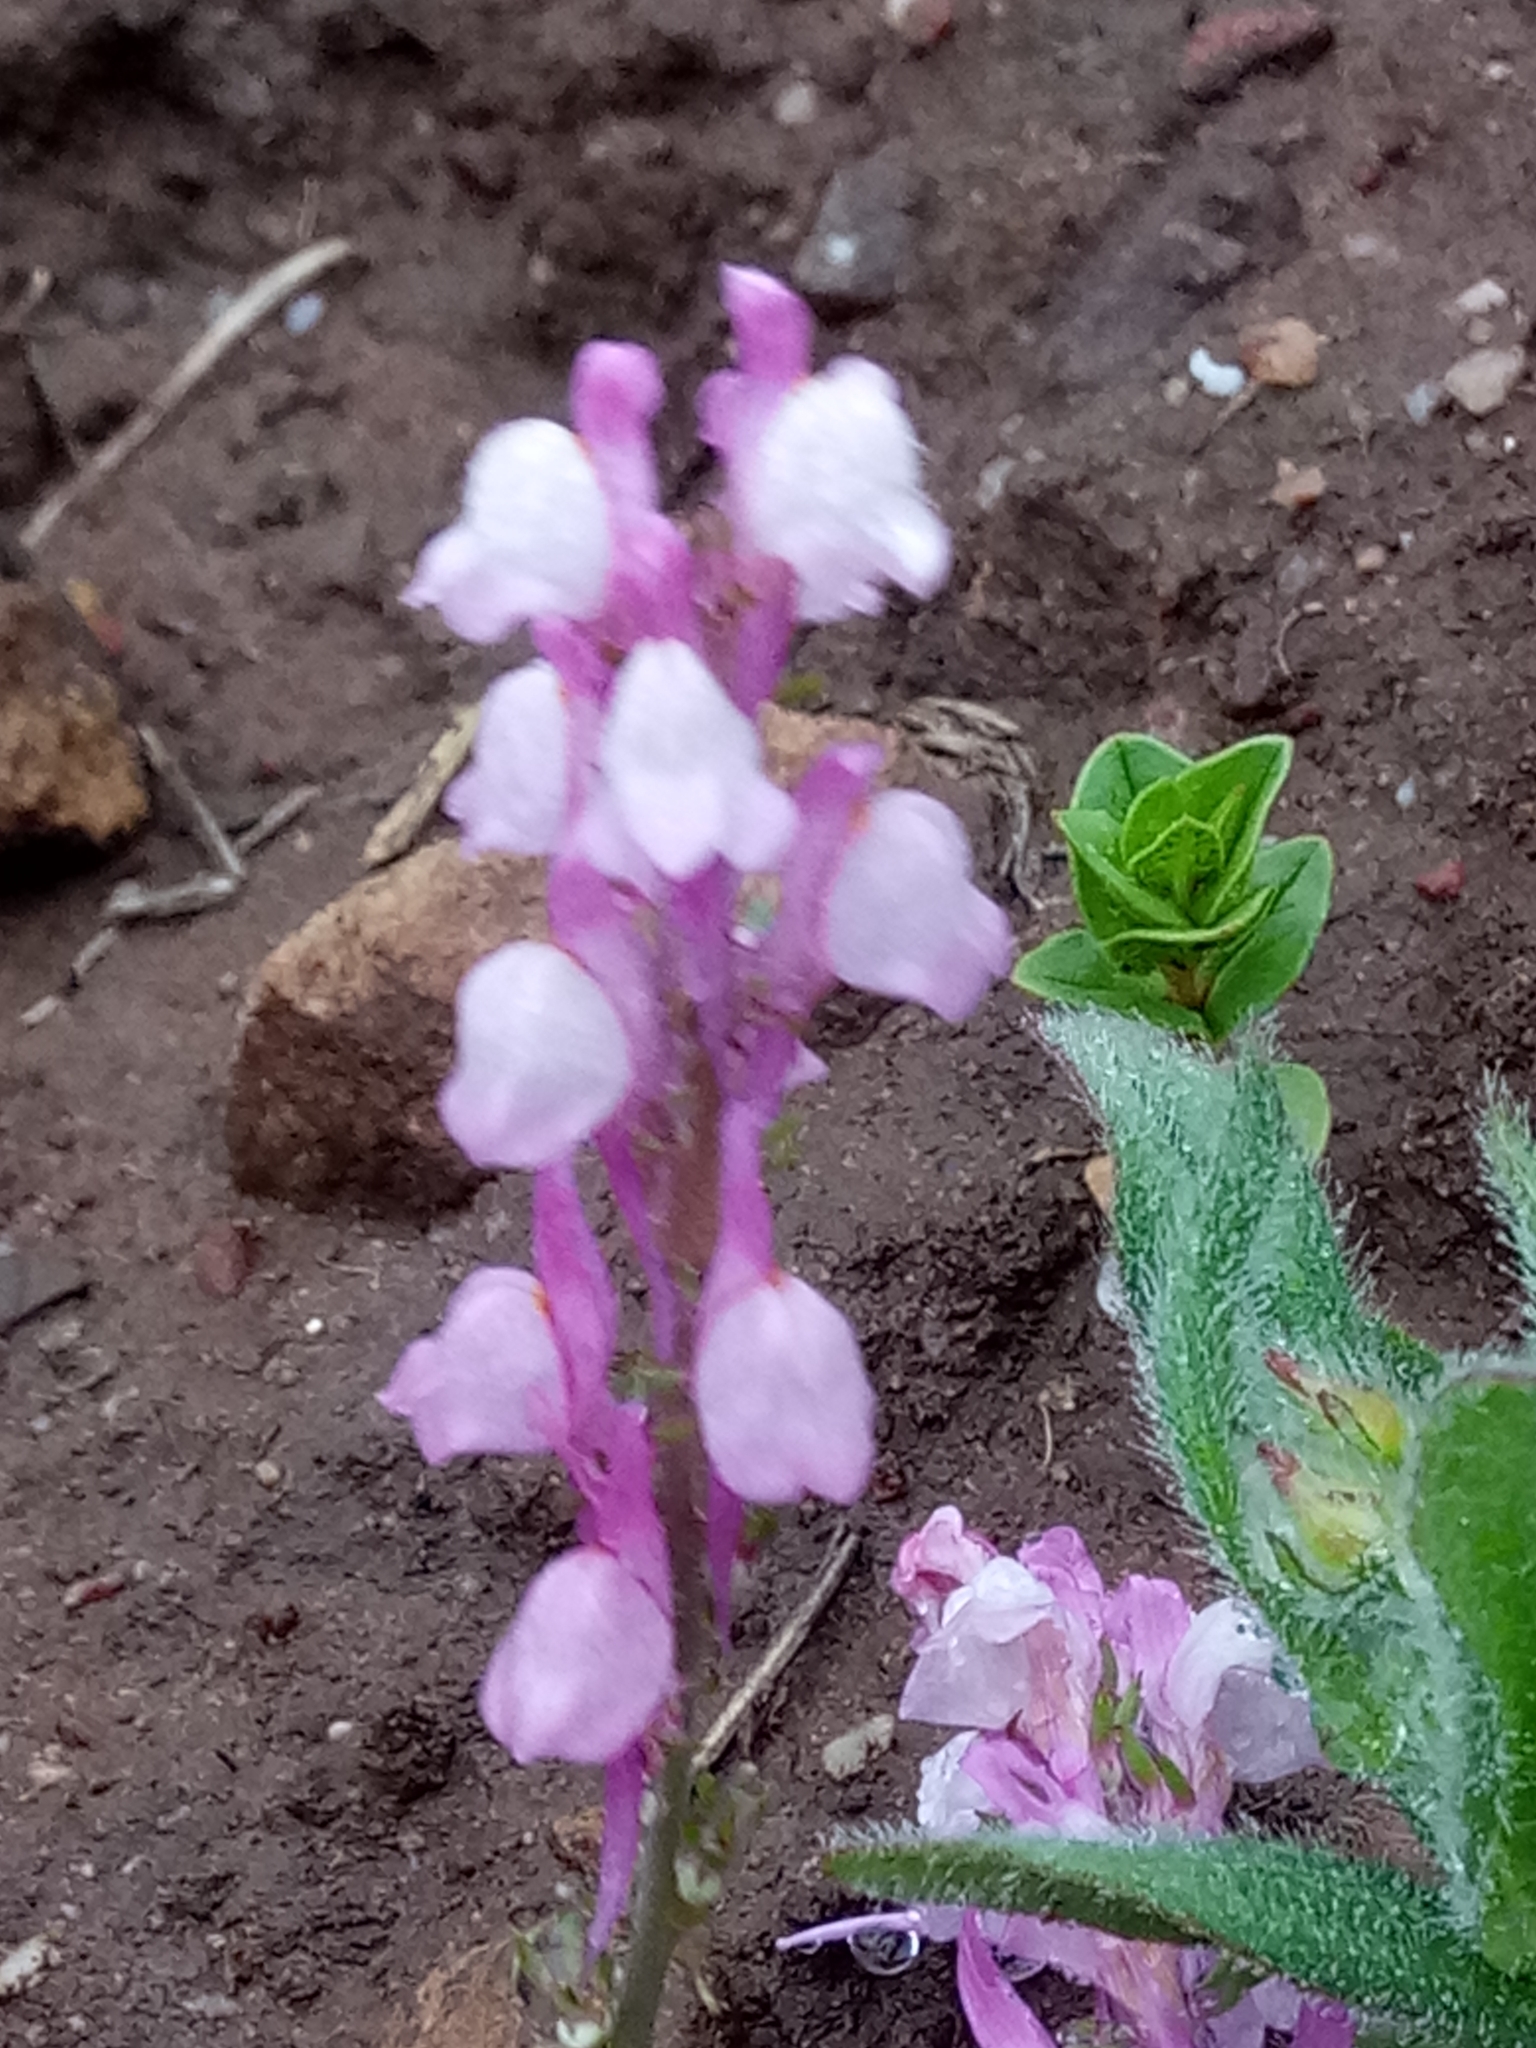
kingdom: Plantae
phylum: Tracheophyta
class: Magnoliopsida
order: Lamiales
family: Plantaginaceae
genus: Linaria
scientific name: Linaria virgata
